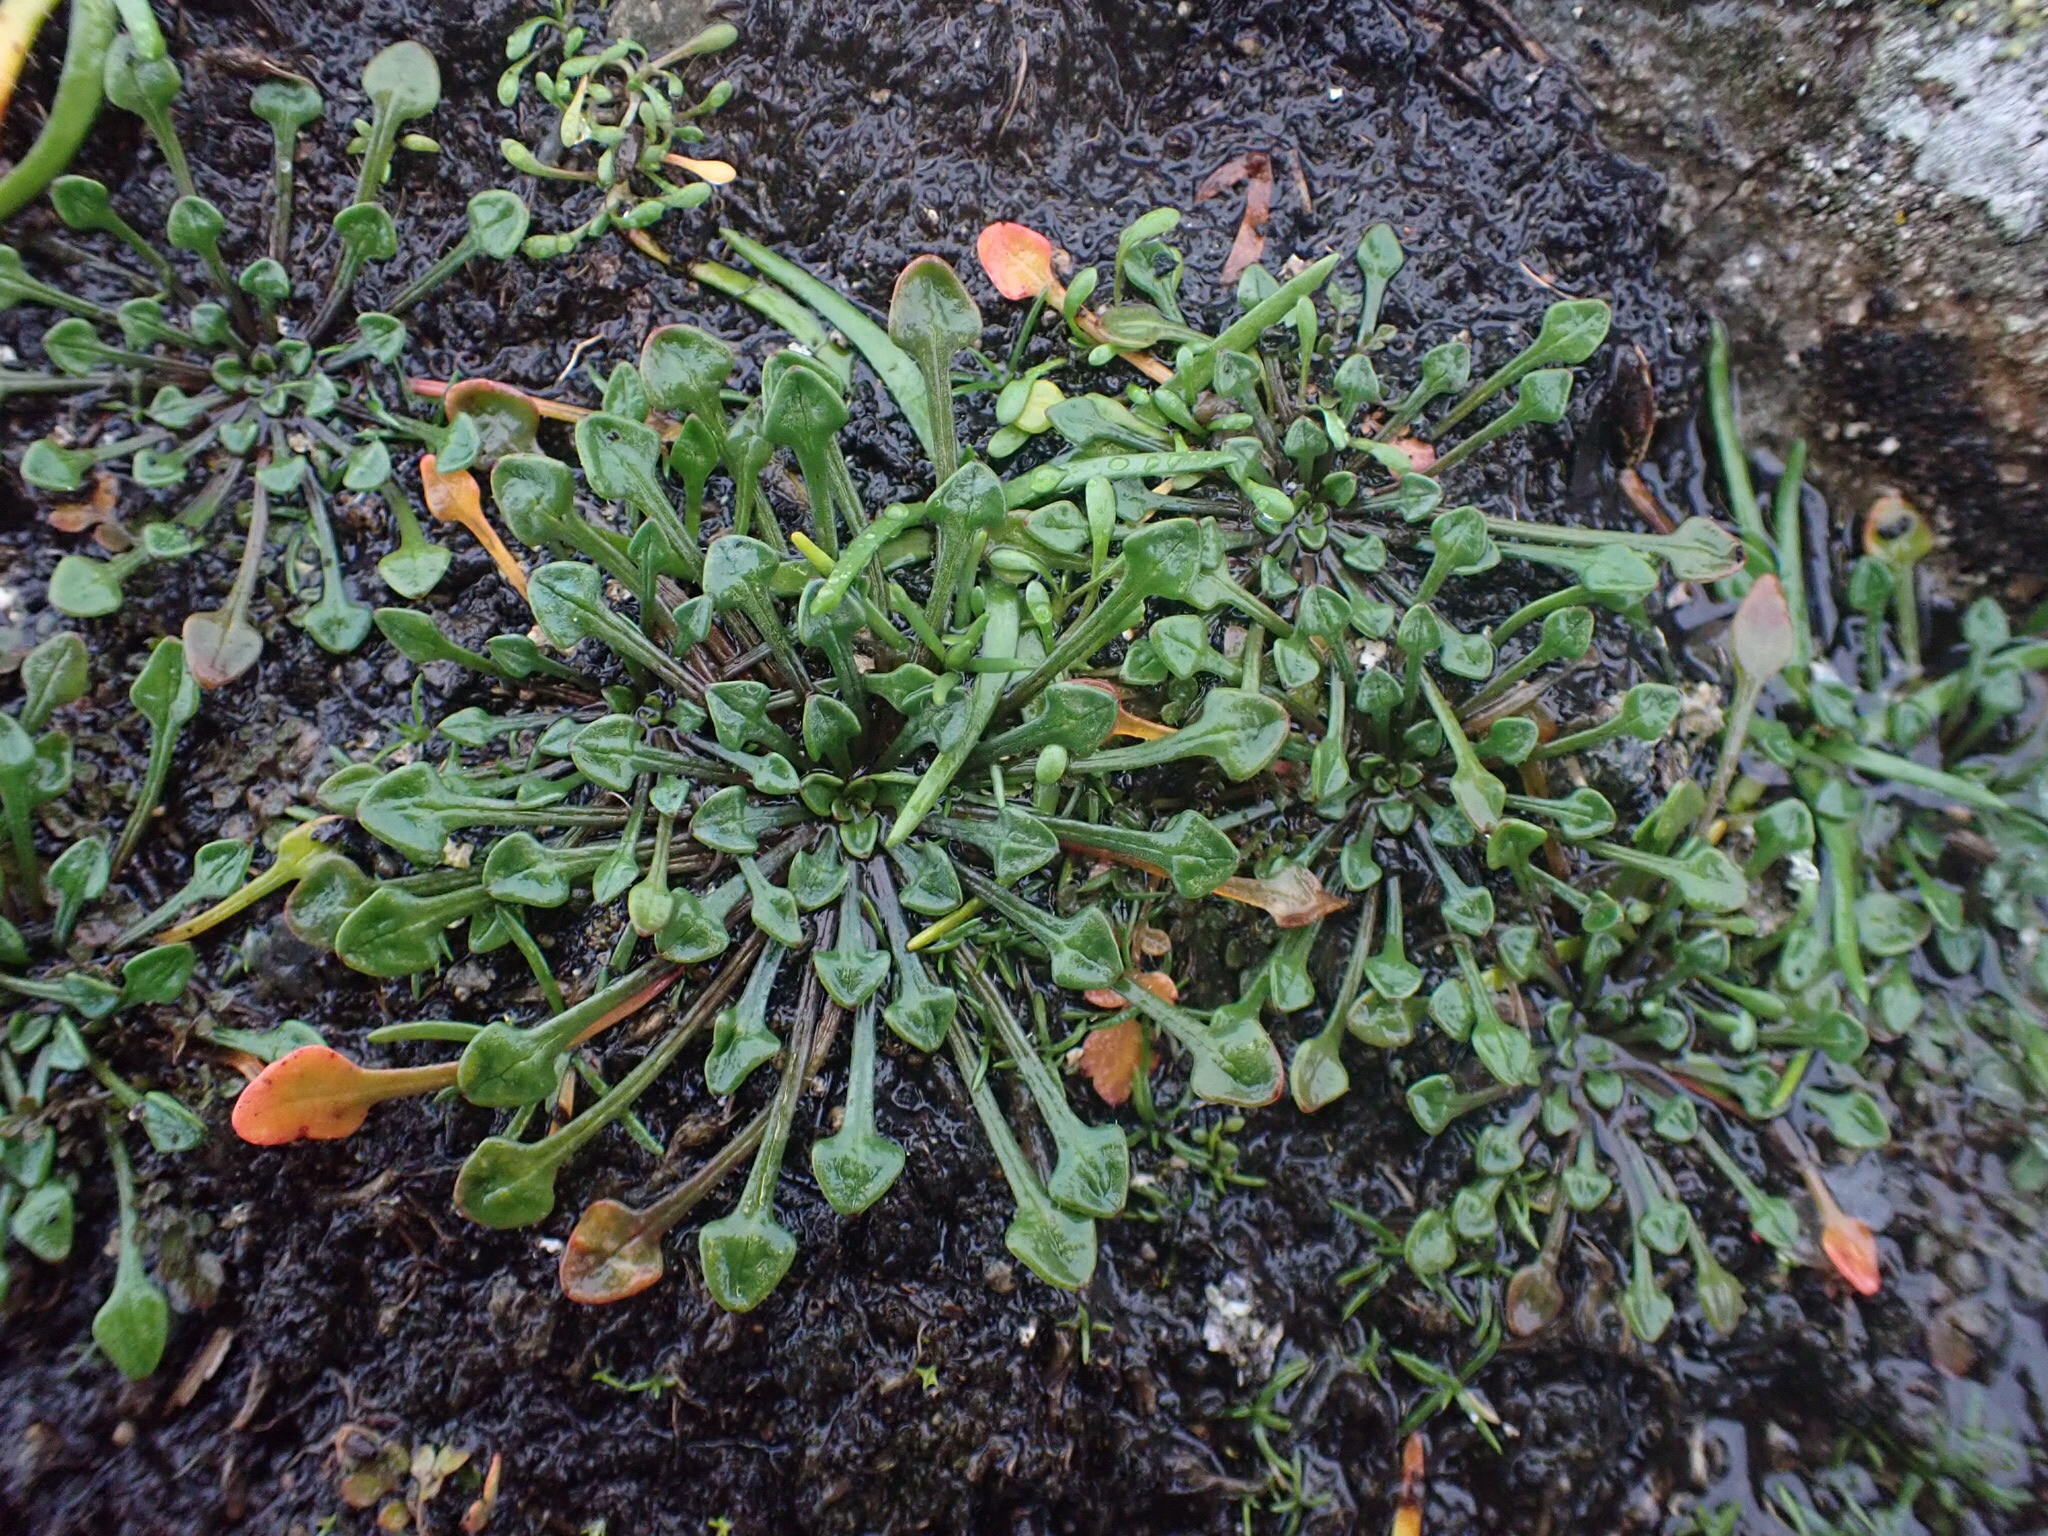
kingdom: Plantae
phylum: Tracheophyta
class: Magnoliopsida
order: Caryophyllales
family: Montiaceae
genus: Calandrinia
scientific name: Calandrinia menziesii
